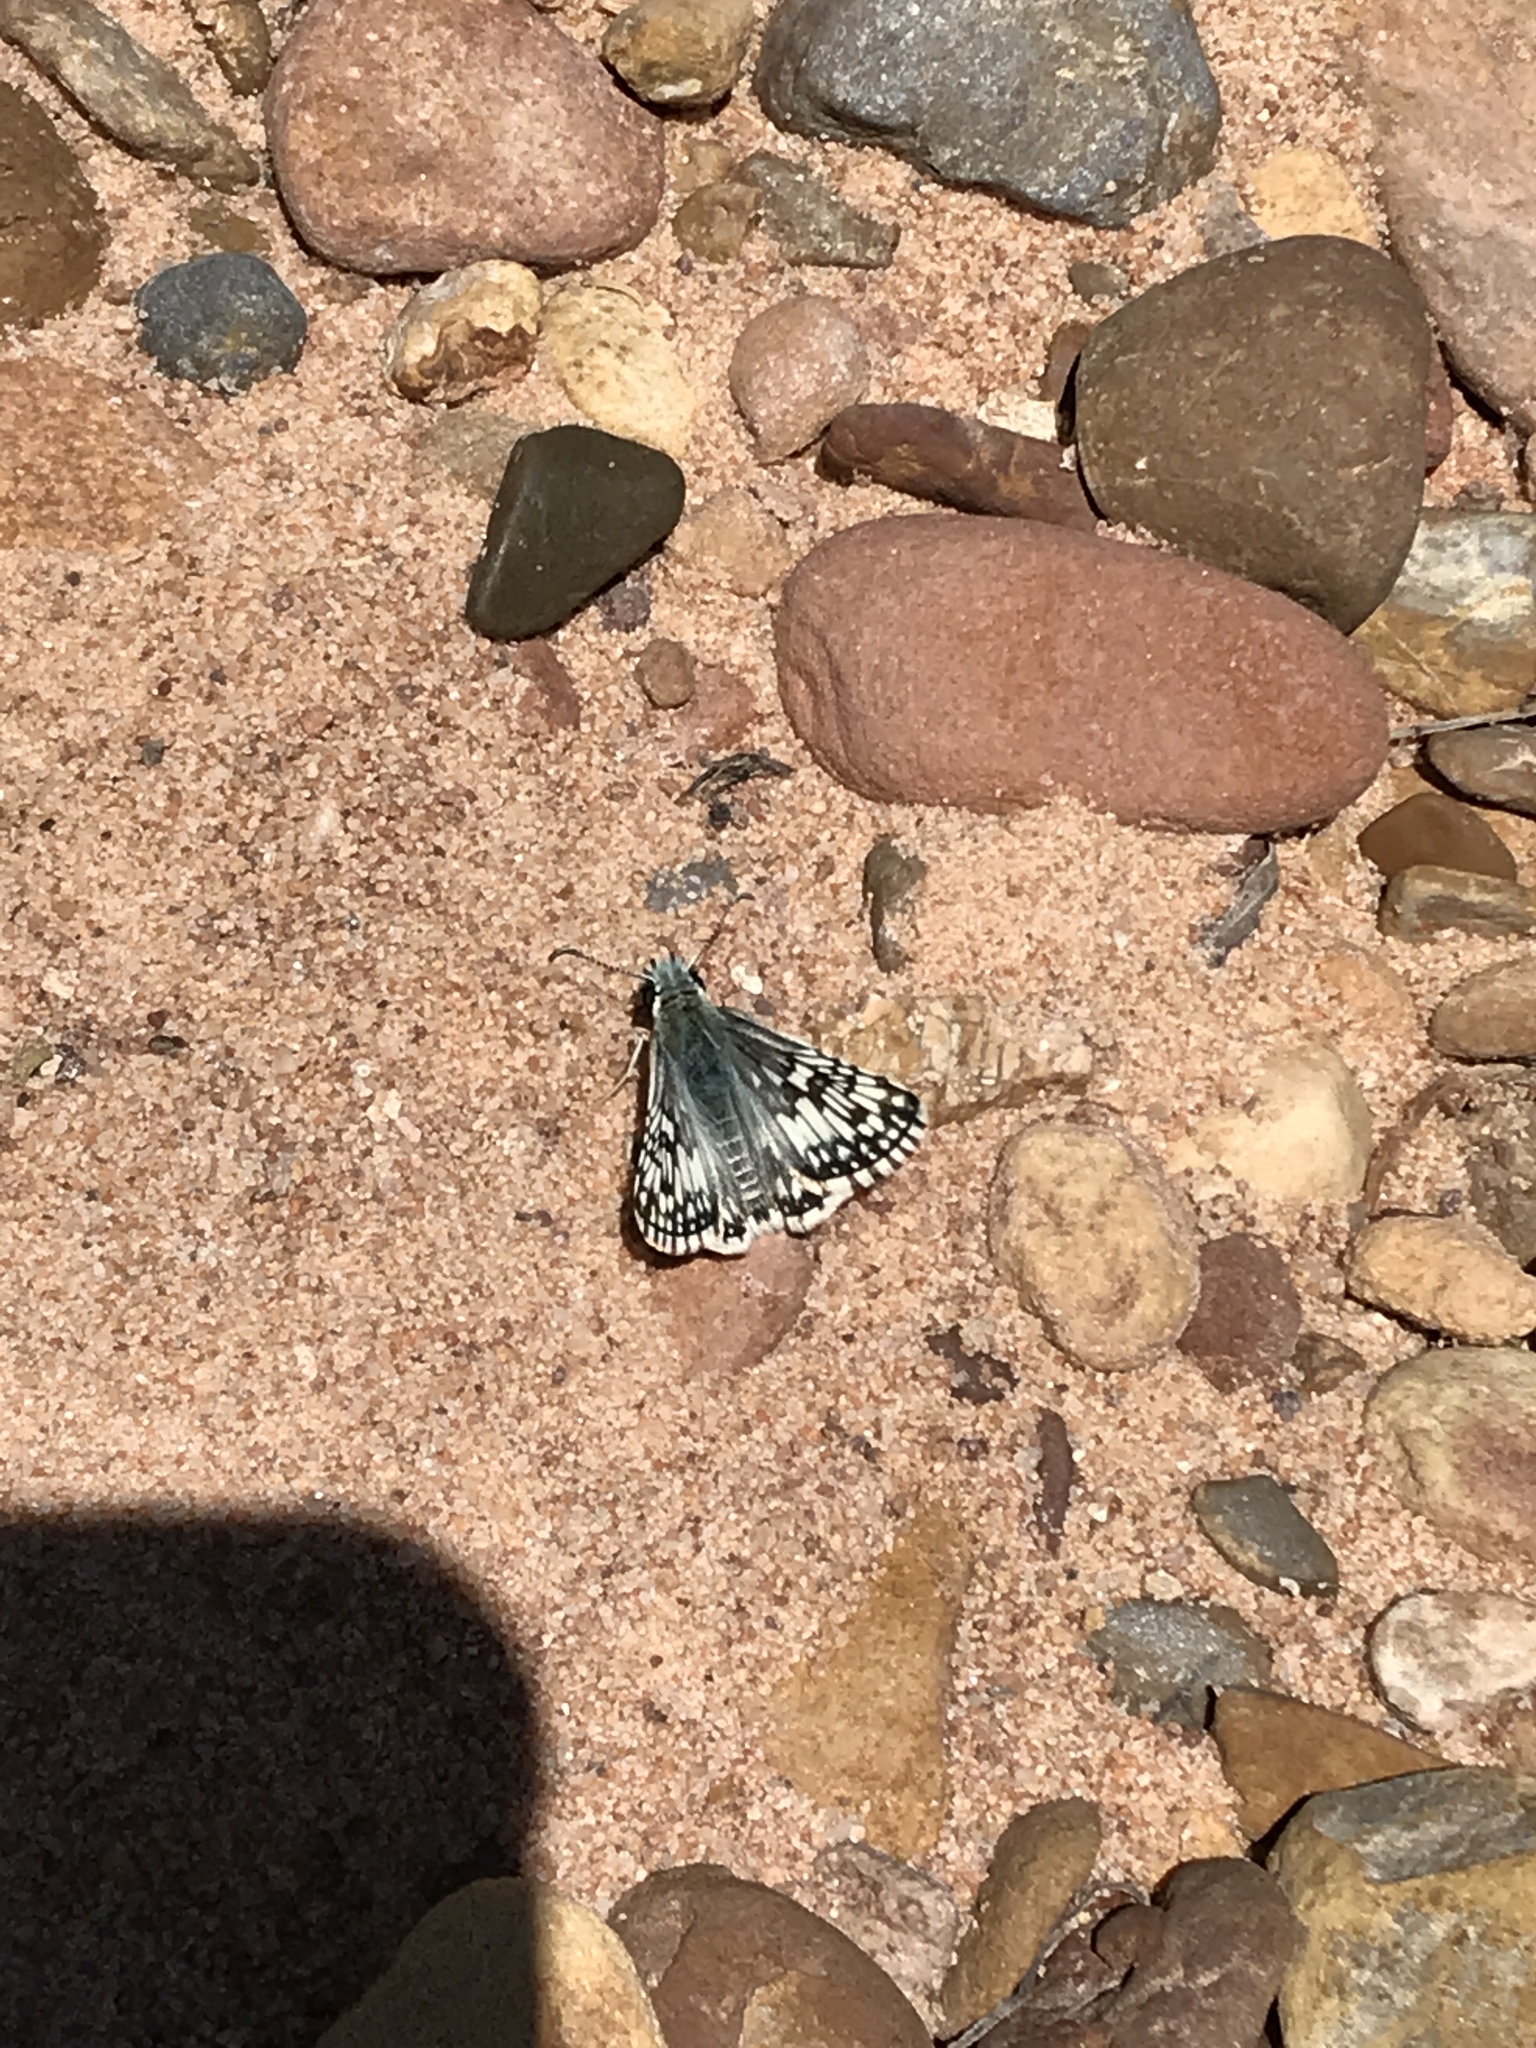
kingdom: Animalia
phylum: Arthropoda
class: Insecta
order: Lepidoptera
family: Hesperiidae
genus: Burnsius
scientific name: Burnsius communis
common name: Common checkered-skipper
